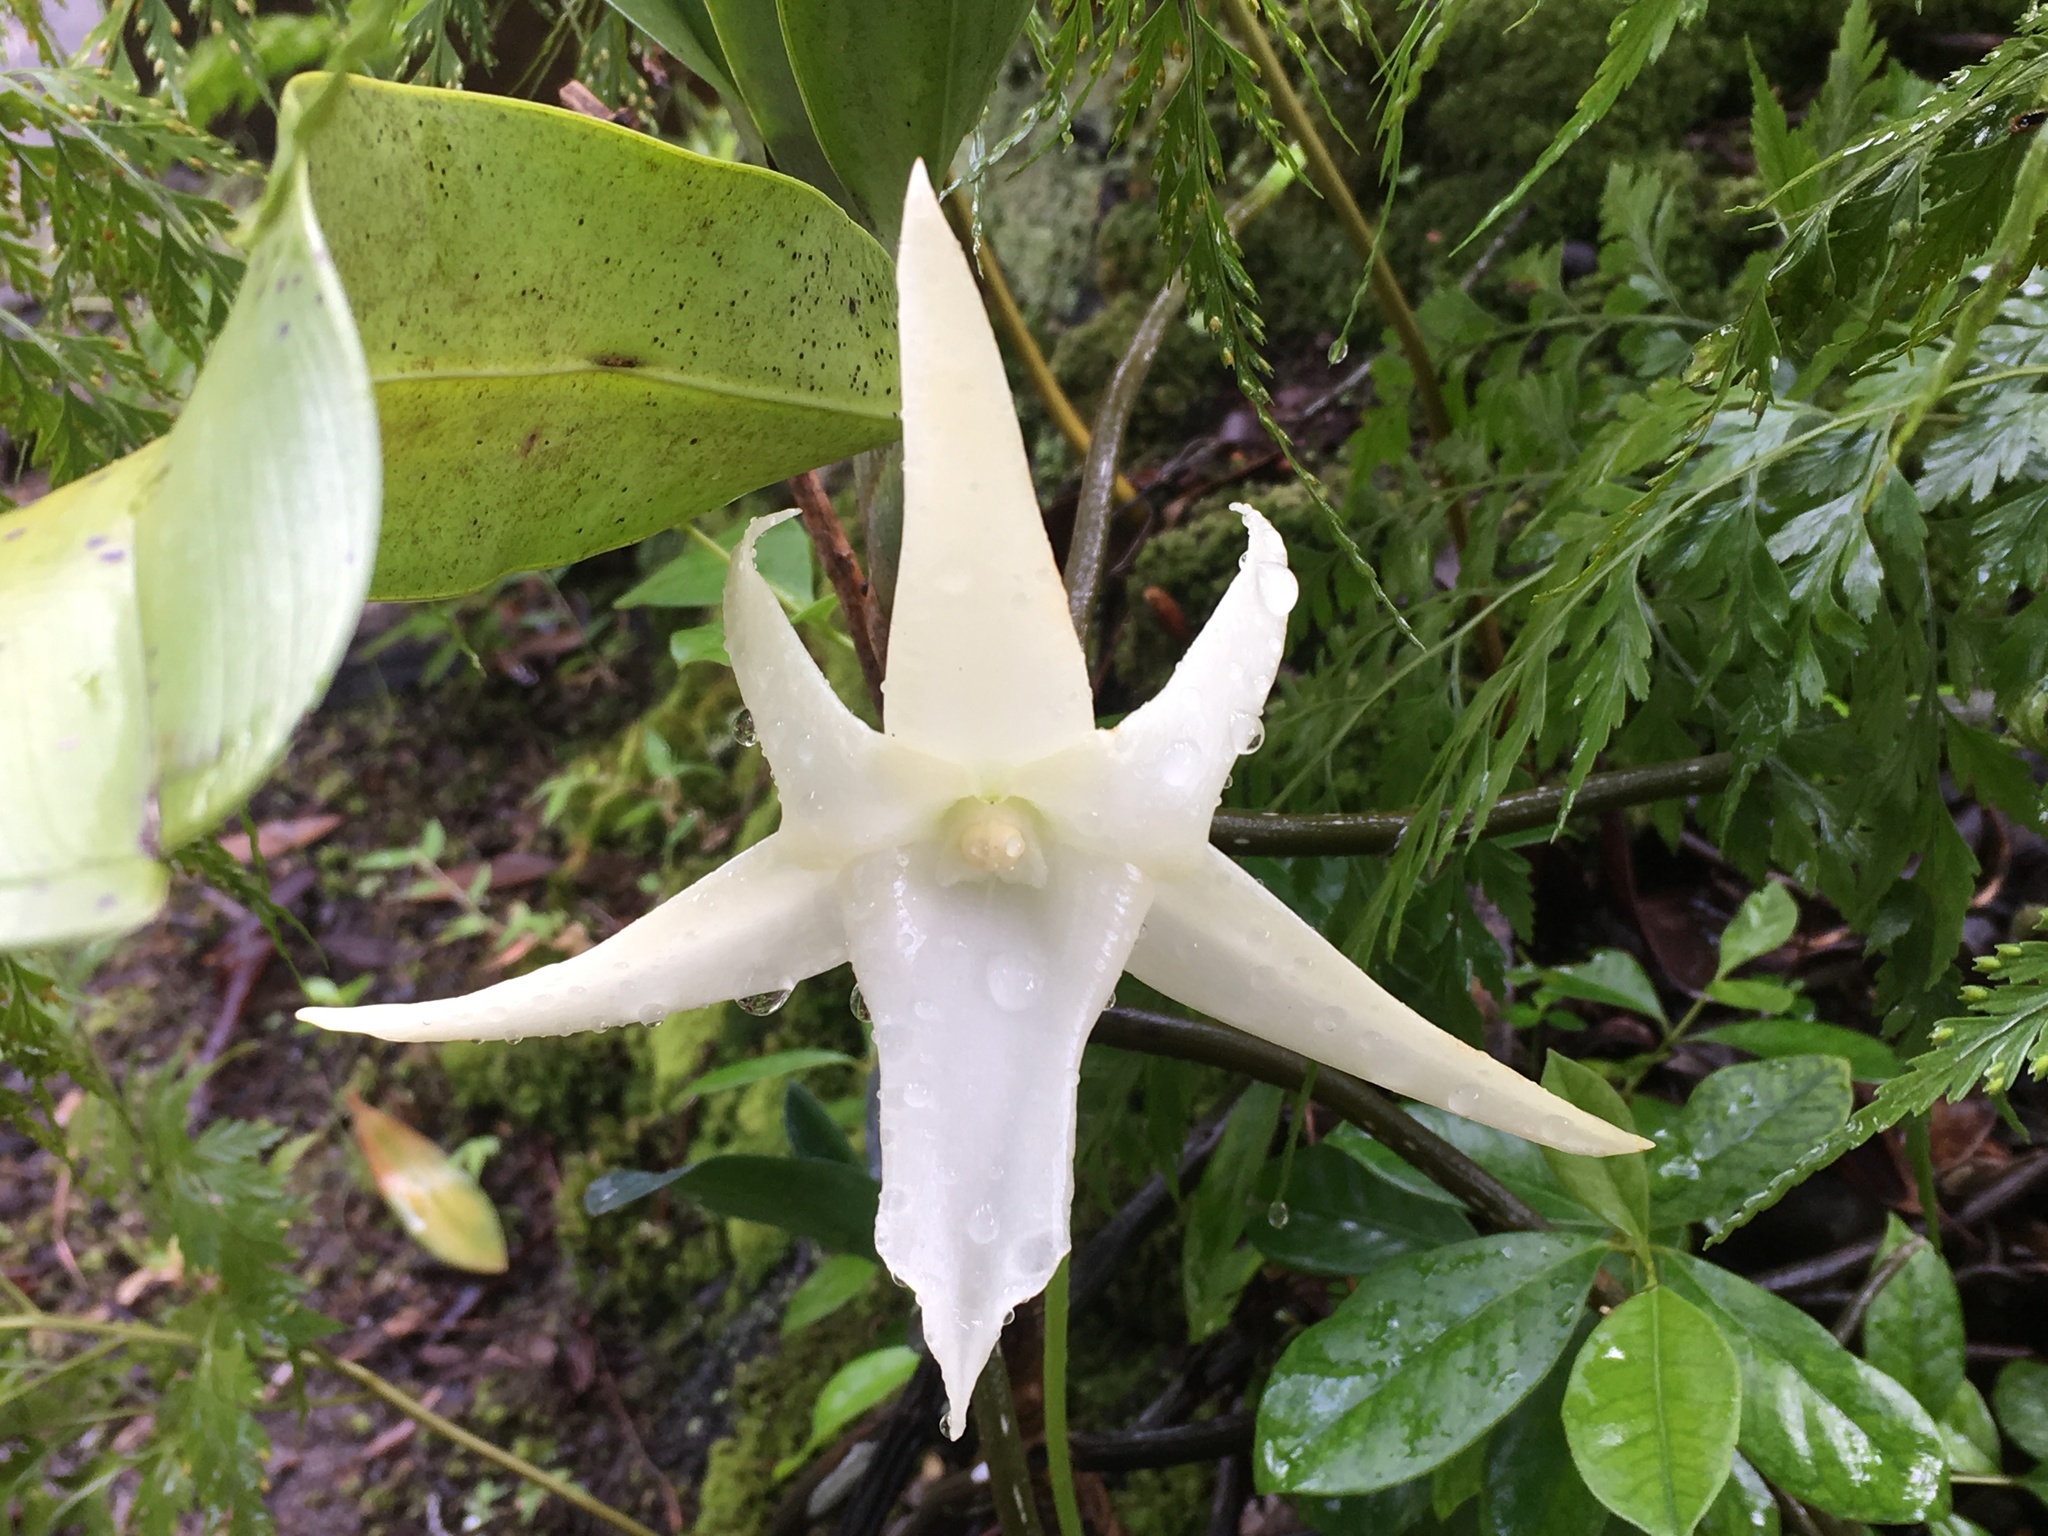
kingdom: Plantae
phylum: Tracheophyta
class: Liliopsida
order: Asparagales
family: Orchidaceae
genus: Angraecum
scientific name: Angraecum sesquipedale
